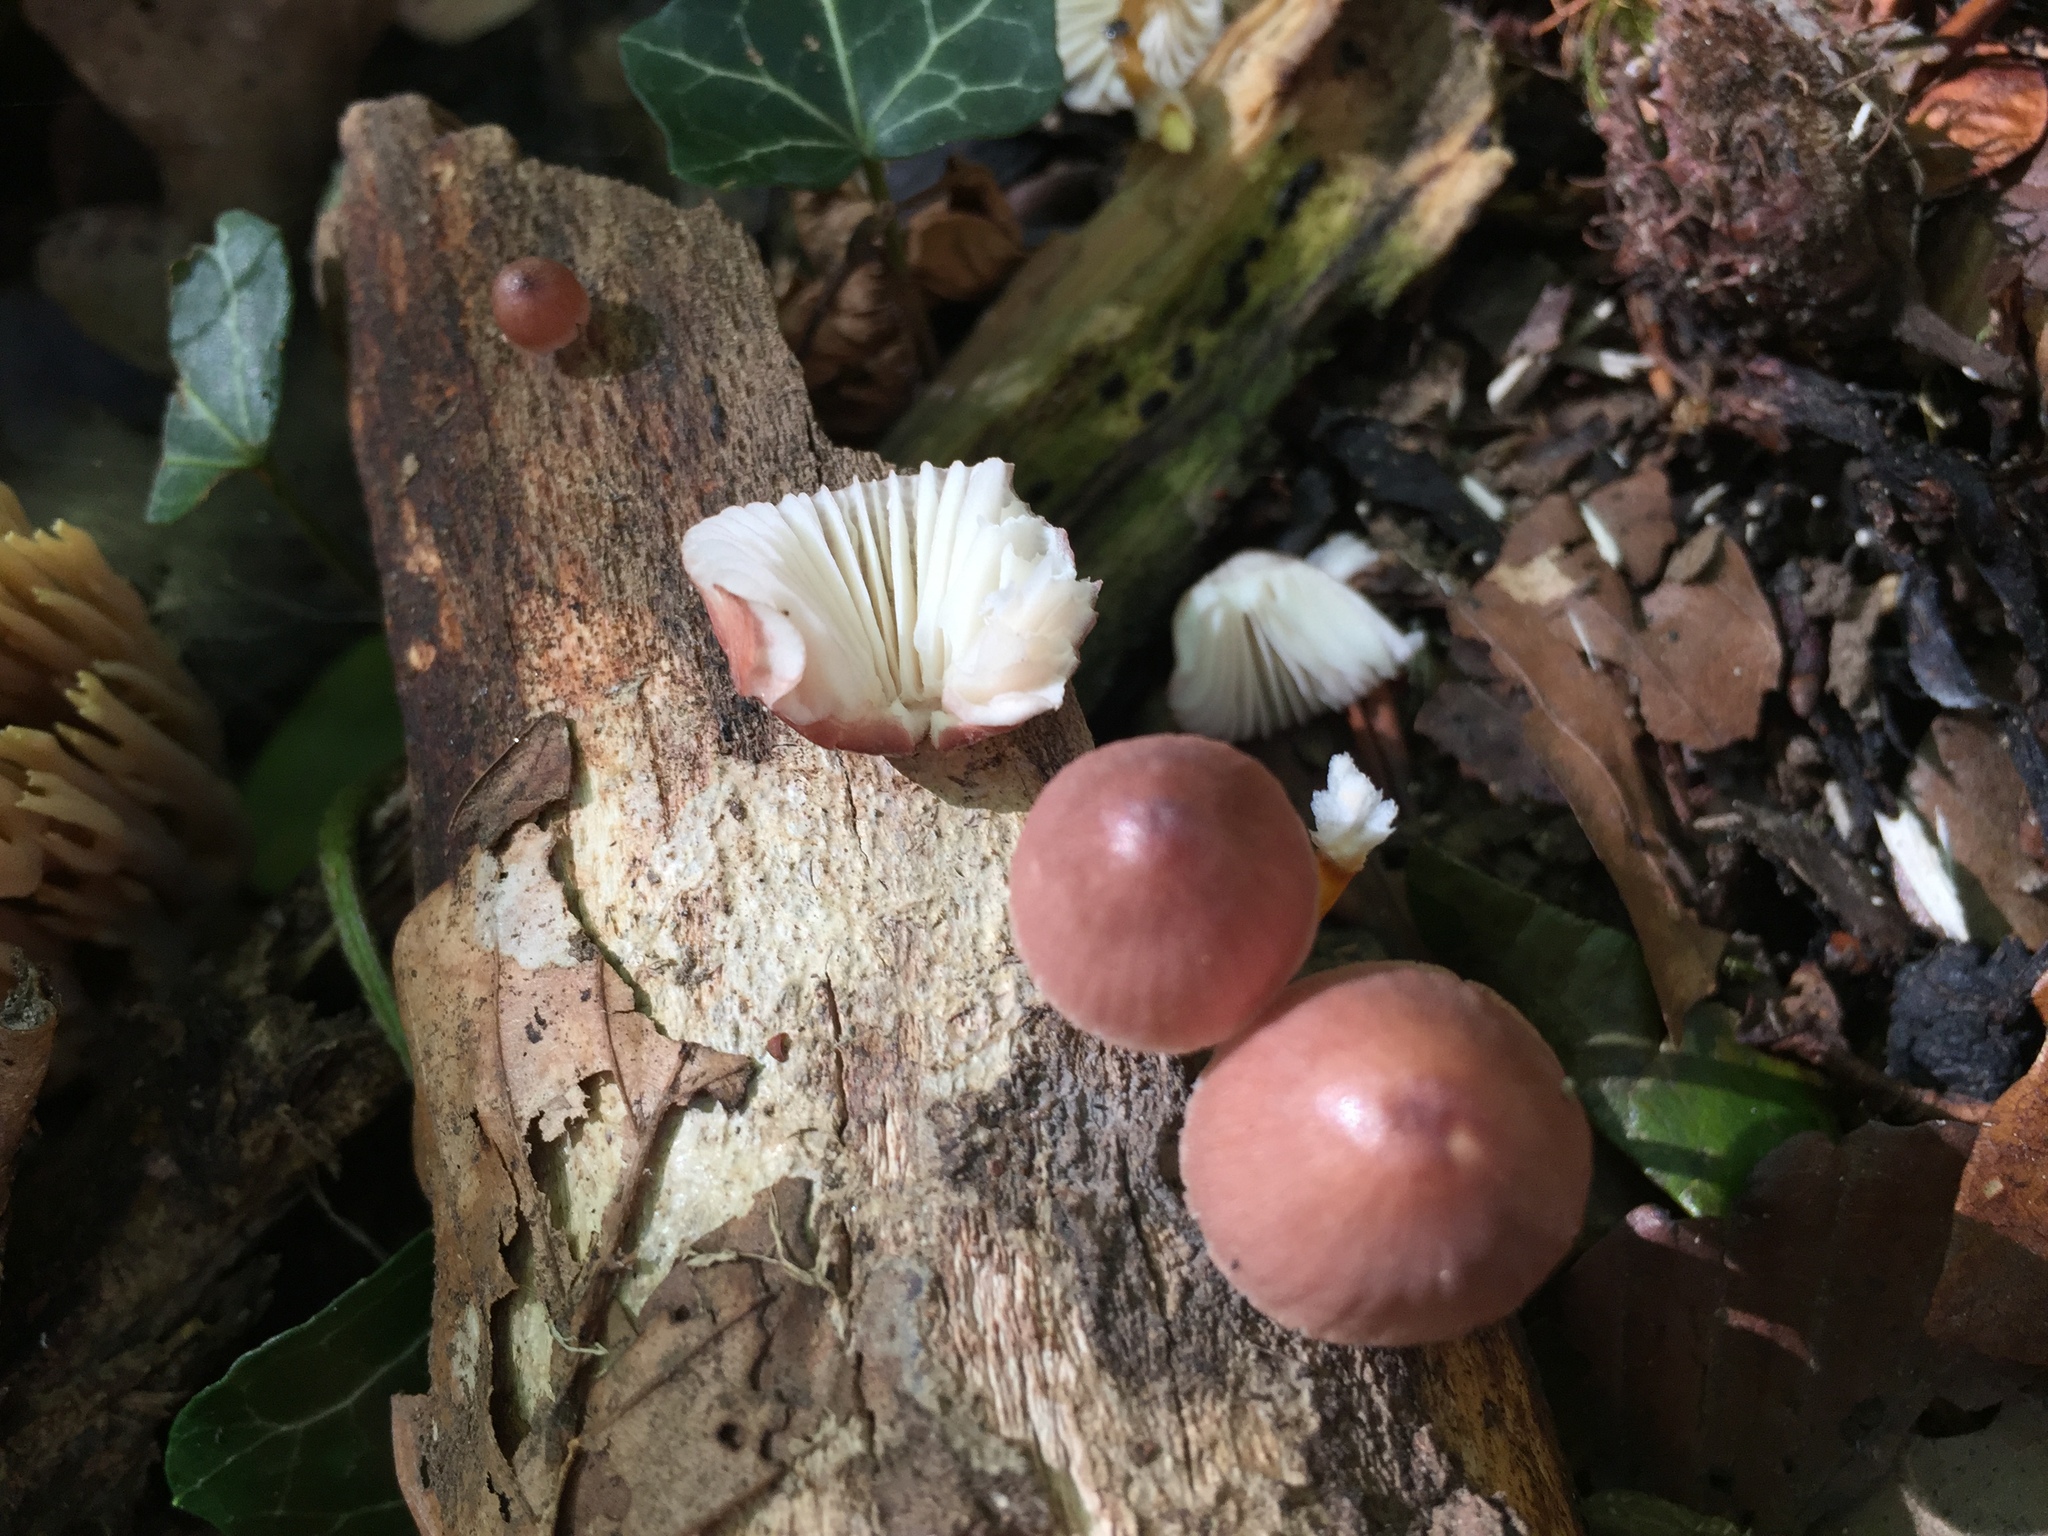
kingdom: Fungi
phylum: Basidiomycota
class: Agaricomycetes
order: Agaricales
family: Mycenaceae
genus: Mycena
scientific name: Mycena renati
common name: Beautiful bonnet
